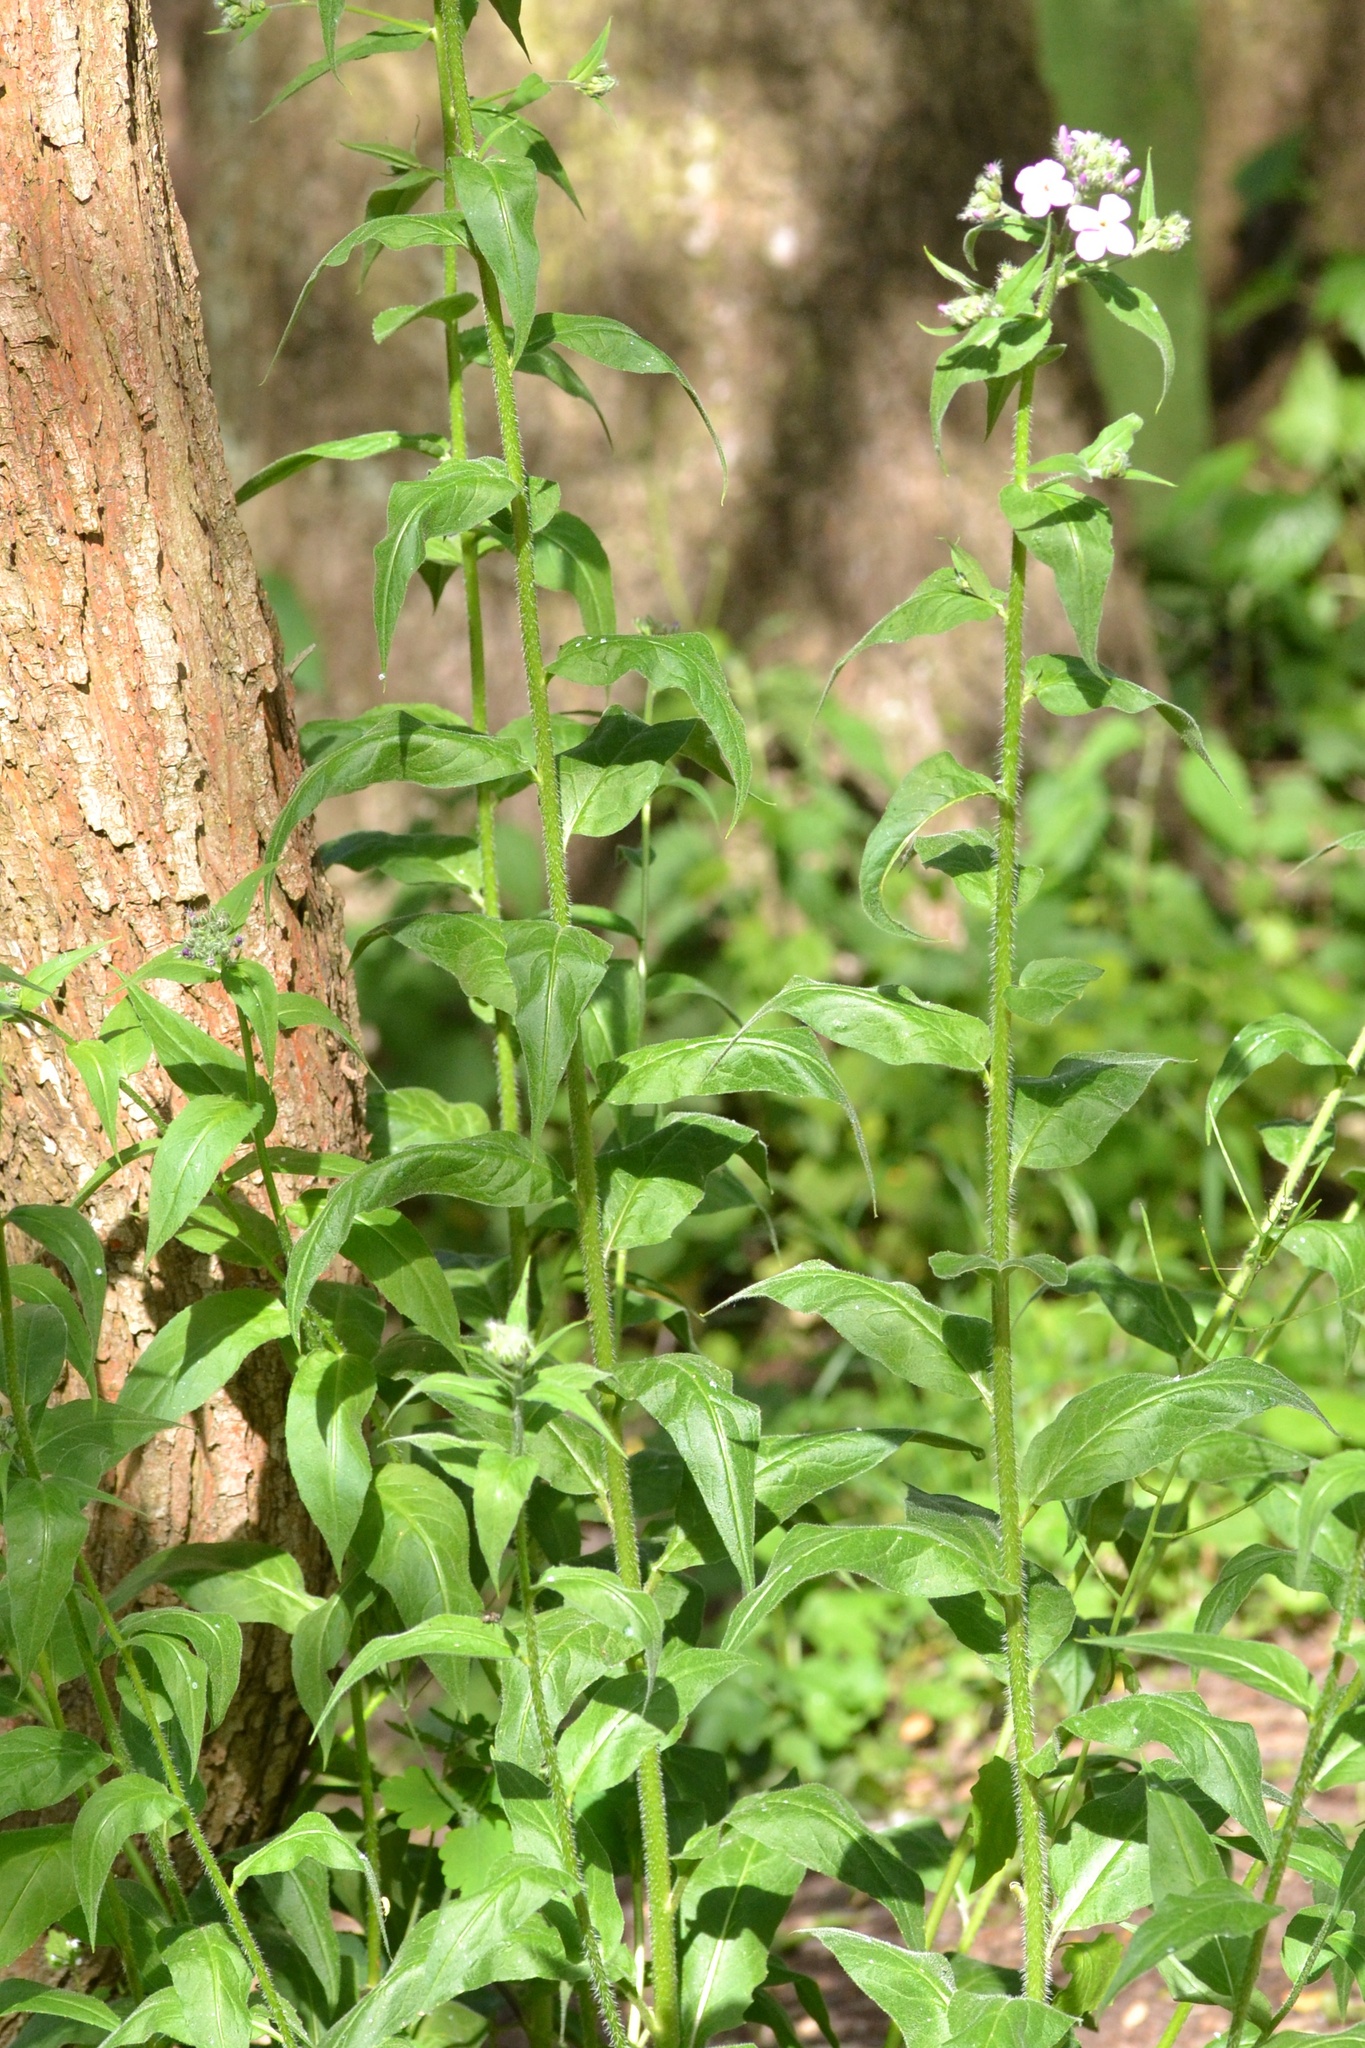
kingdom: Plantae
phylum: Tracheophyta
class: Magnoliopsida
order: Brassicales
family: Brassicaceae
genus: Hesperis
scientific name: Hesperis matronalis
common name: Dame's-violet
